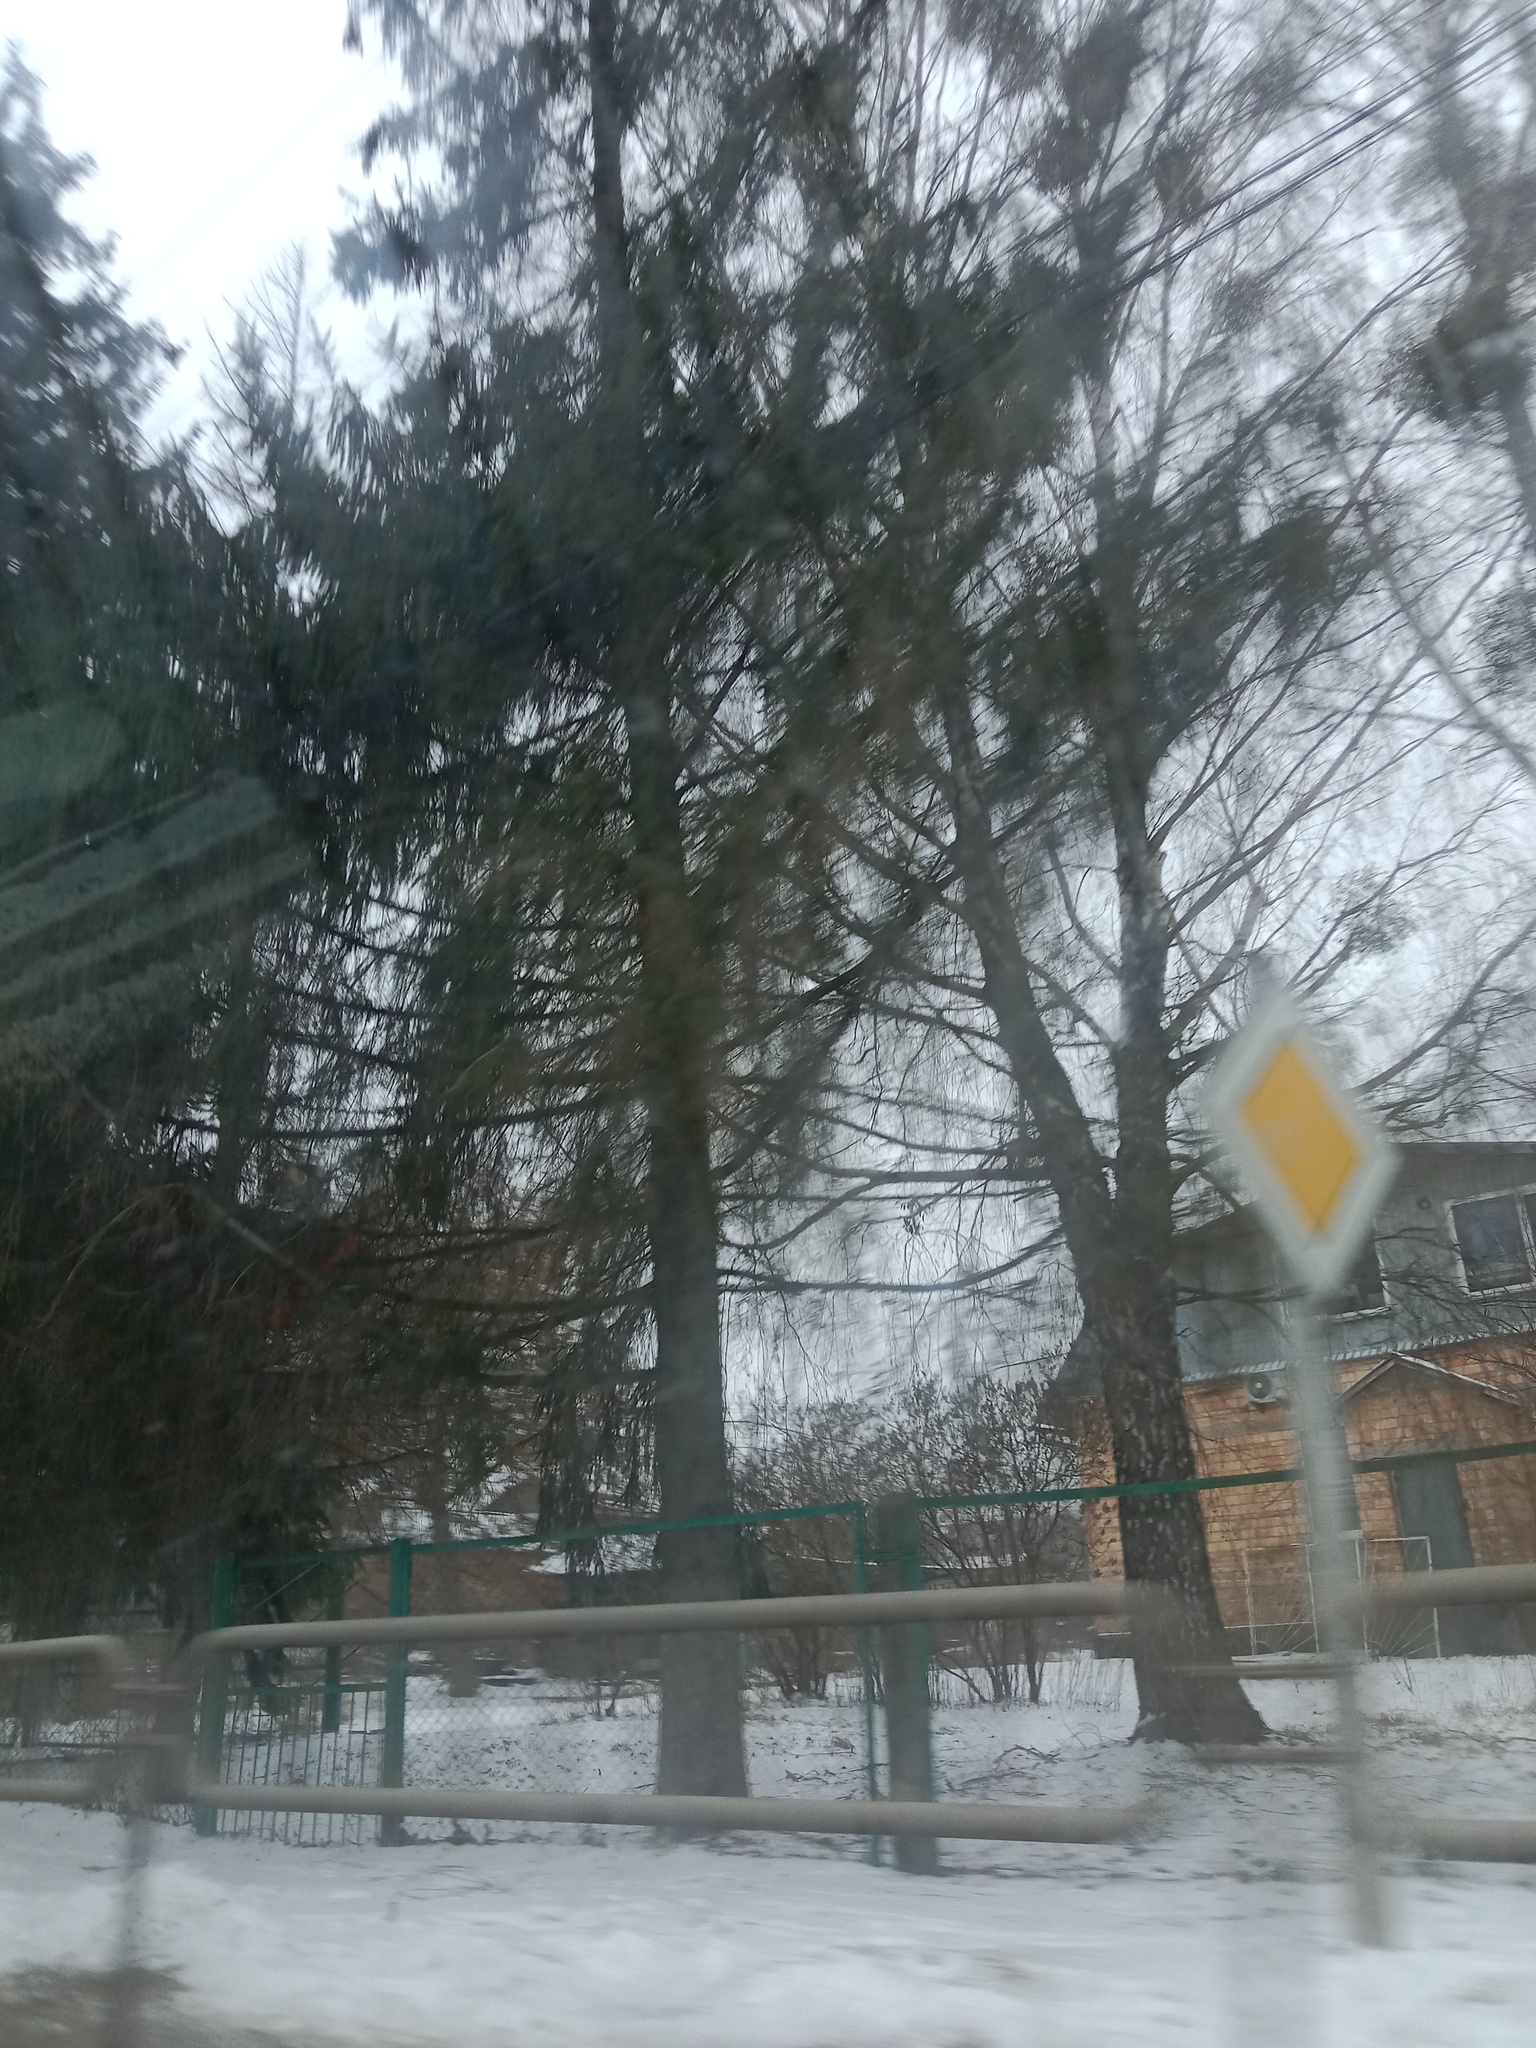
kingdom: Plantae
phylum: Tracheophyta
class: Magnoliopsida
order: Santalales
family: Viscaceae
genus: Viscum
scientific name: Viscum album
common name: Mistletoe
